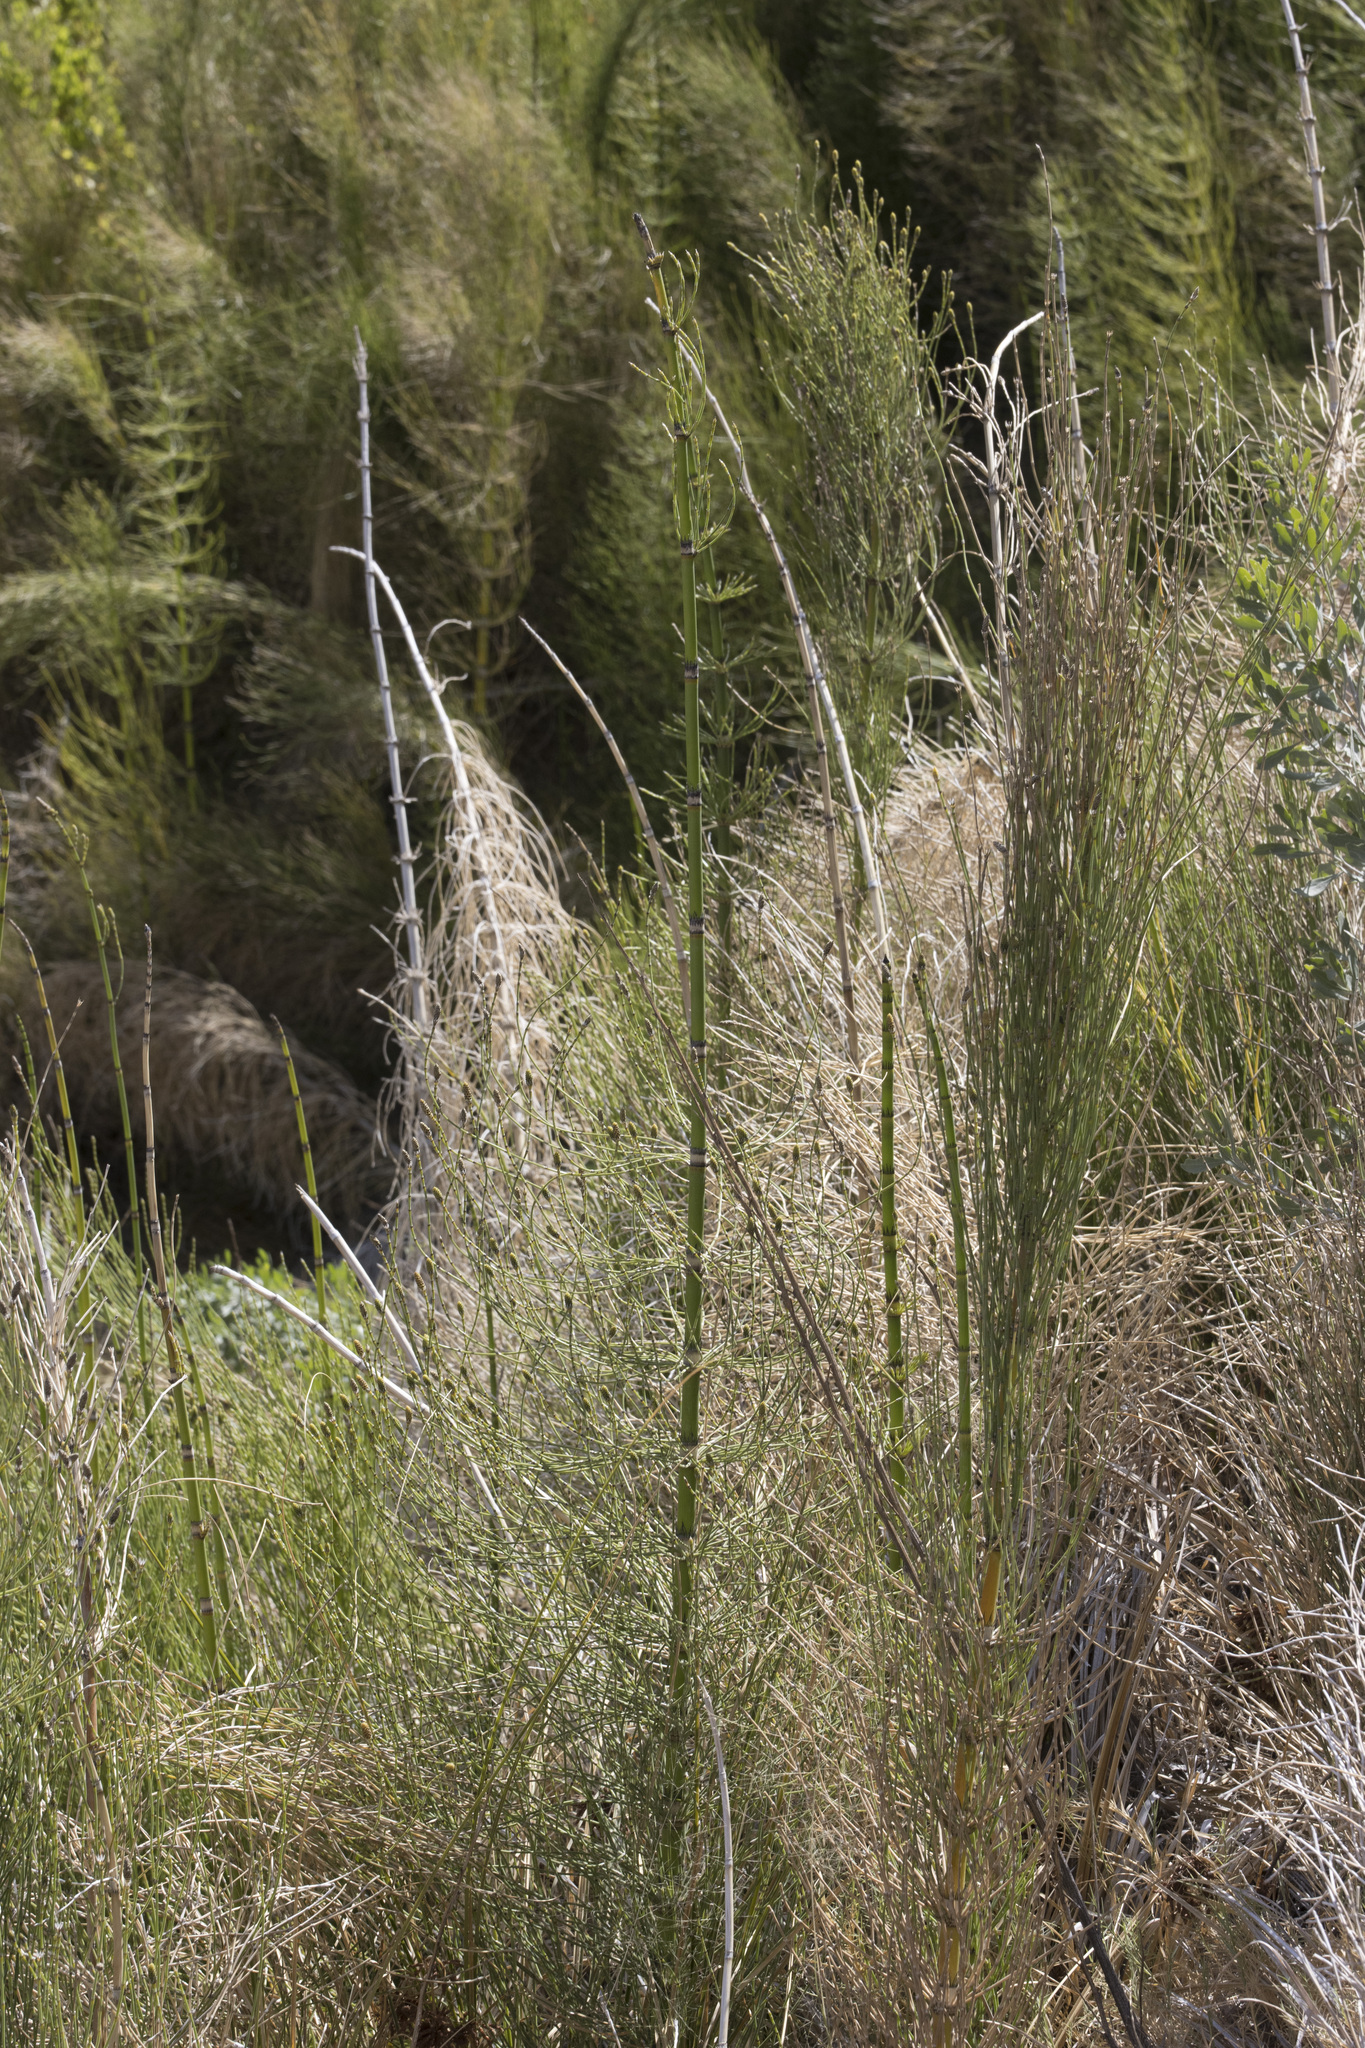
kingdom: Plantae
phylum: Tracheophyta
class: Polypodiopsida
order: Equisetales
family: Equisetaceae
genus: Equisetum
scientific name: Equisetum giganteum
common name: Giant horsetail
